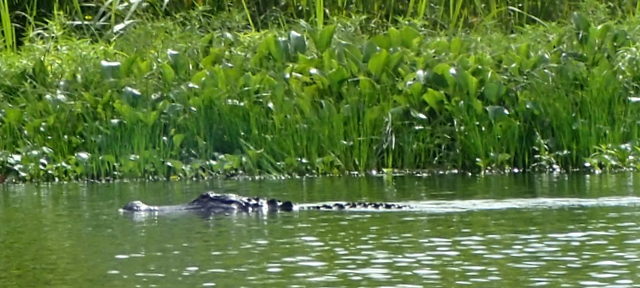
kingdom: Animalia
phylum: Chordata
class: Crocodylia
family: Alligatoridae
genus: Alligator
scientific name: Alligator mississippiensis
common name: American alligator
